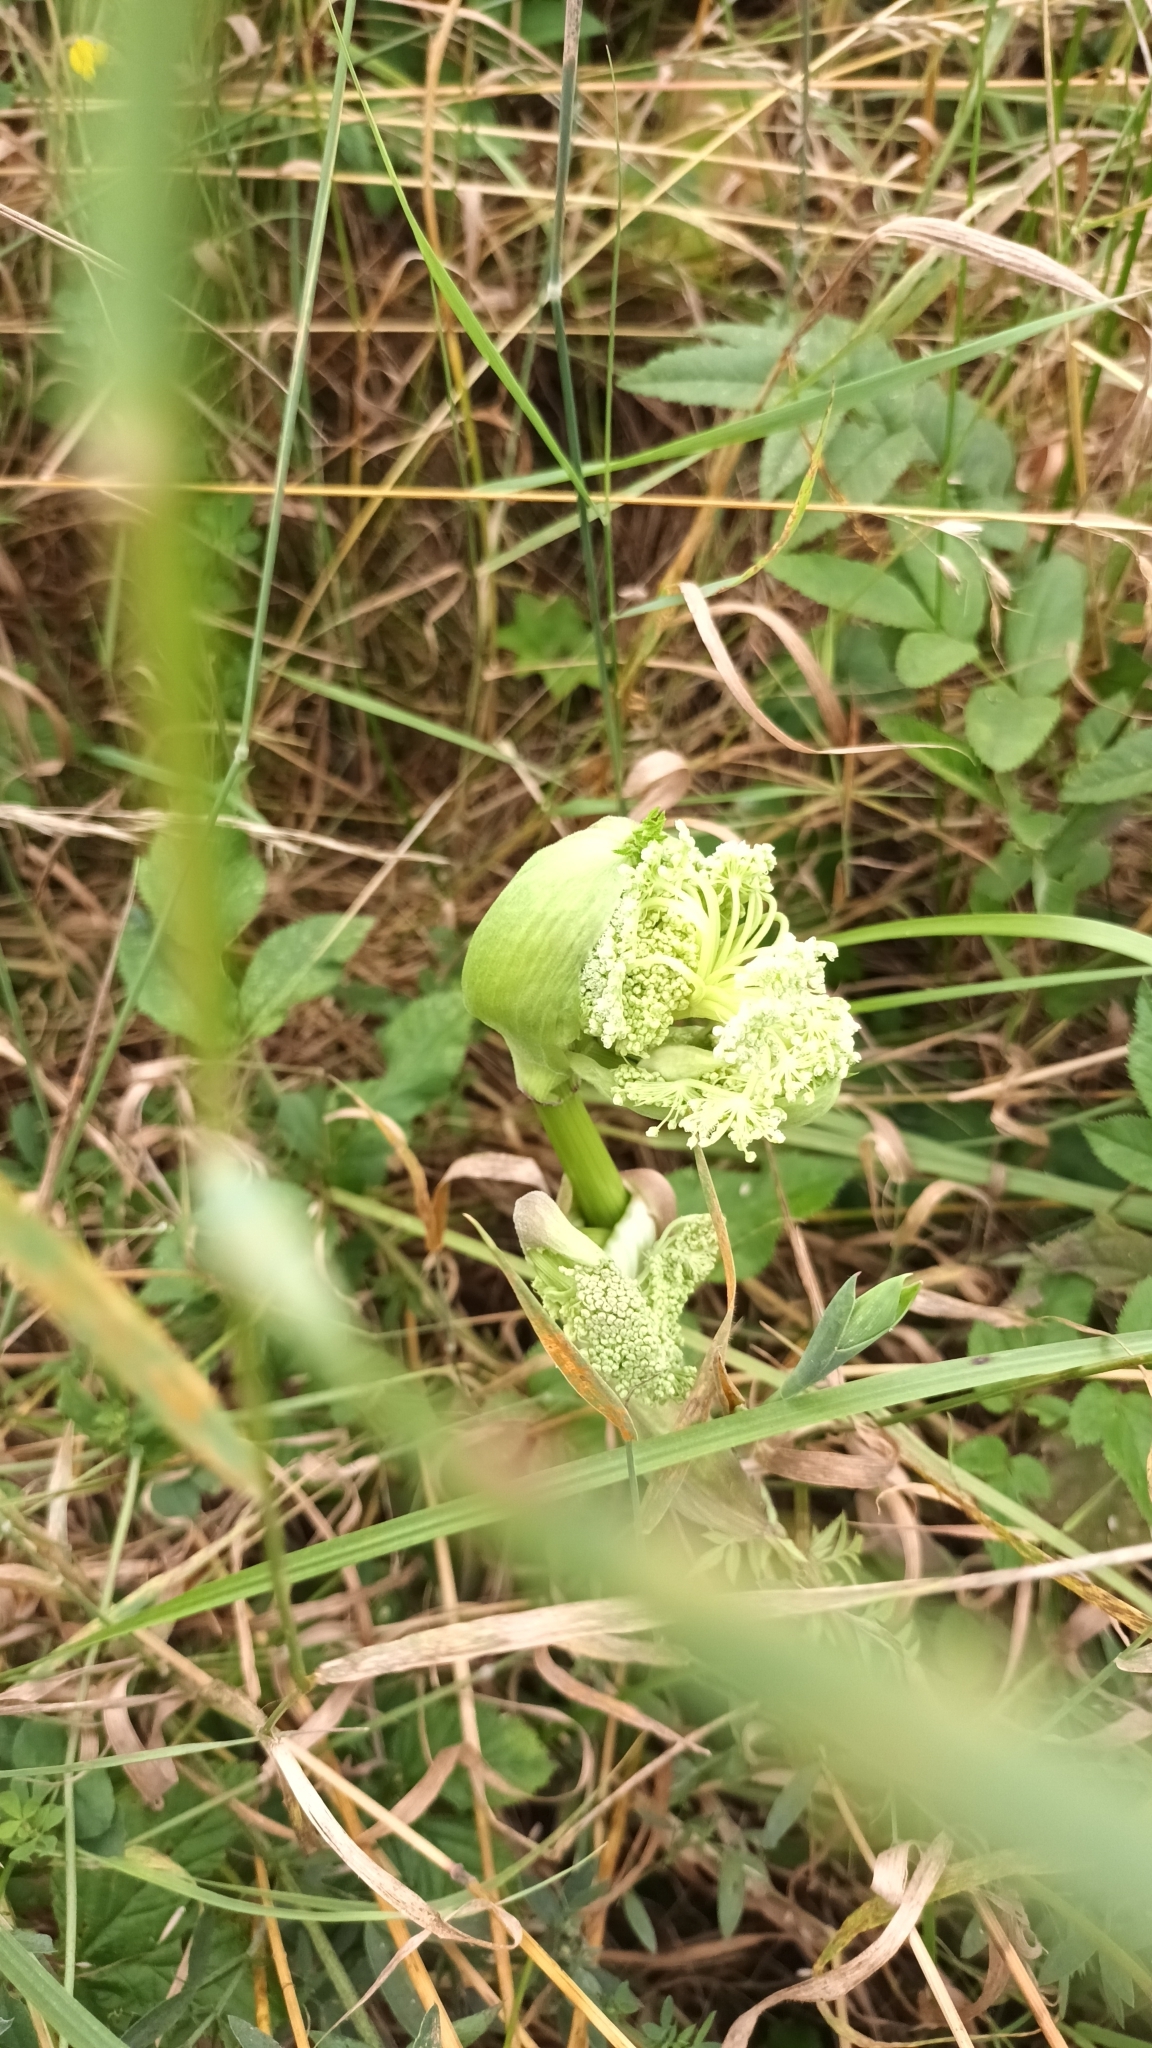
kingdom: Plantae
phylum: Tracheophyta
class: Magnoliopsida
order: Apiales
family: Apiaceae
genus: Angelica
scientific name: Angelica sylvestris
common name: Wild angelica
